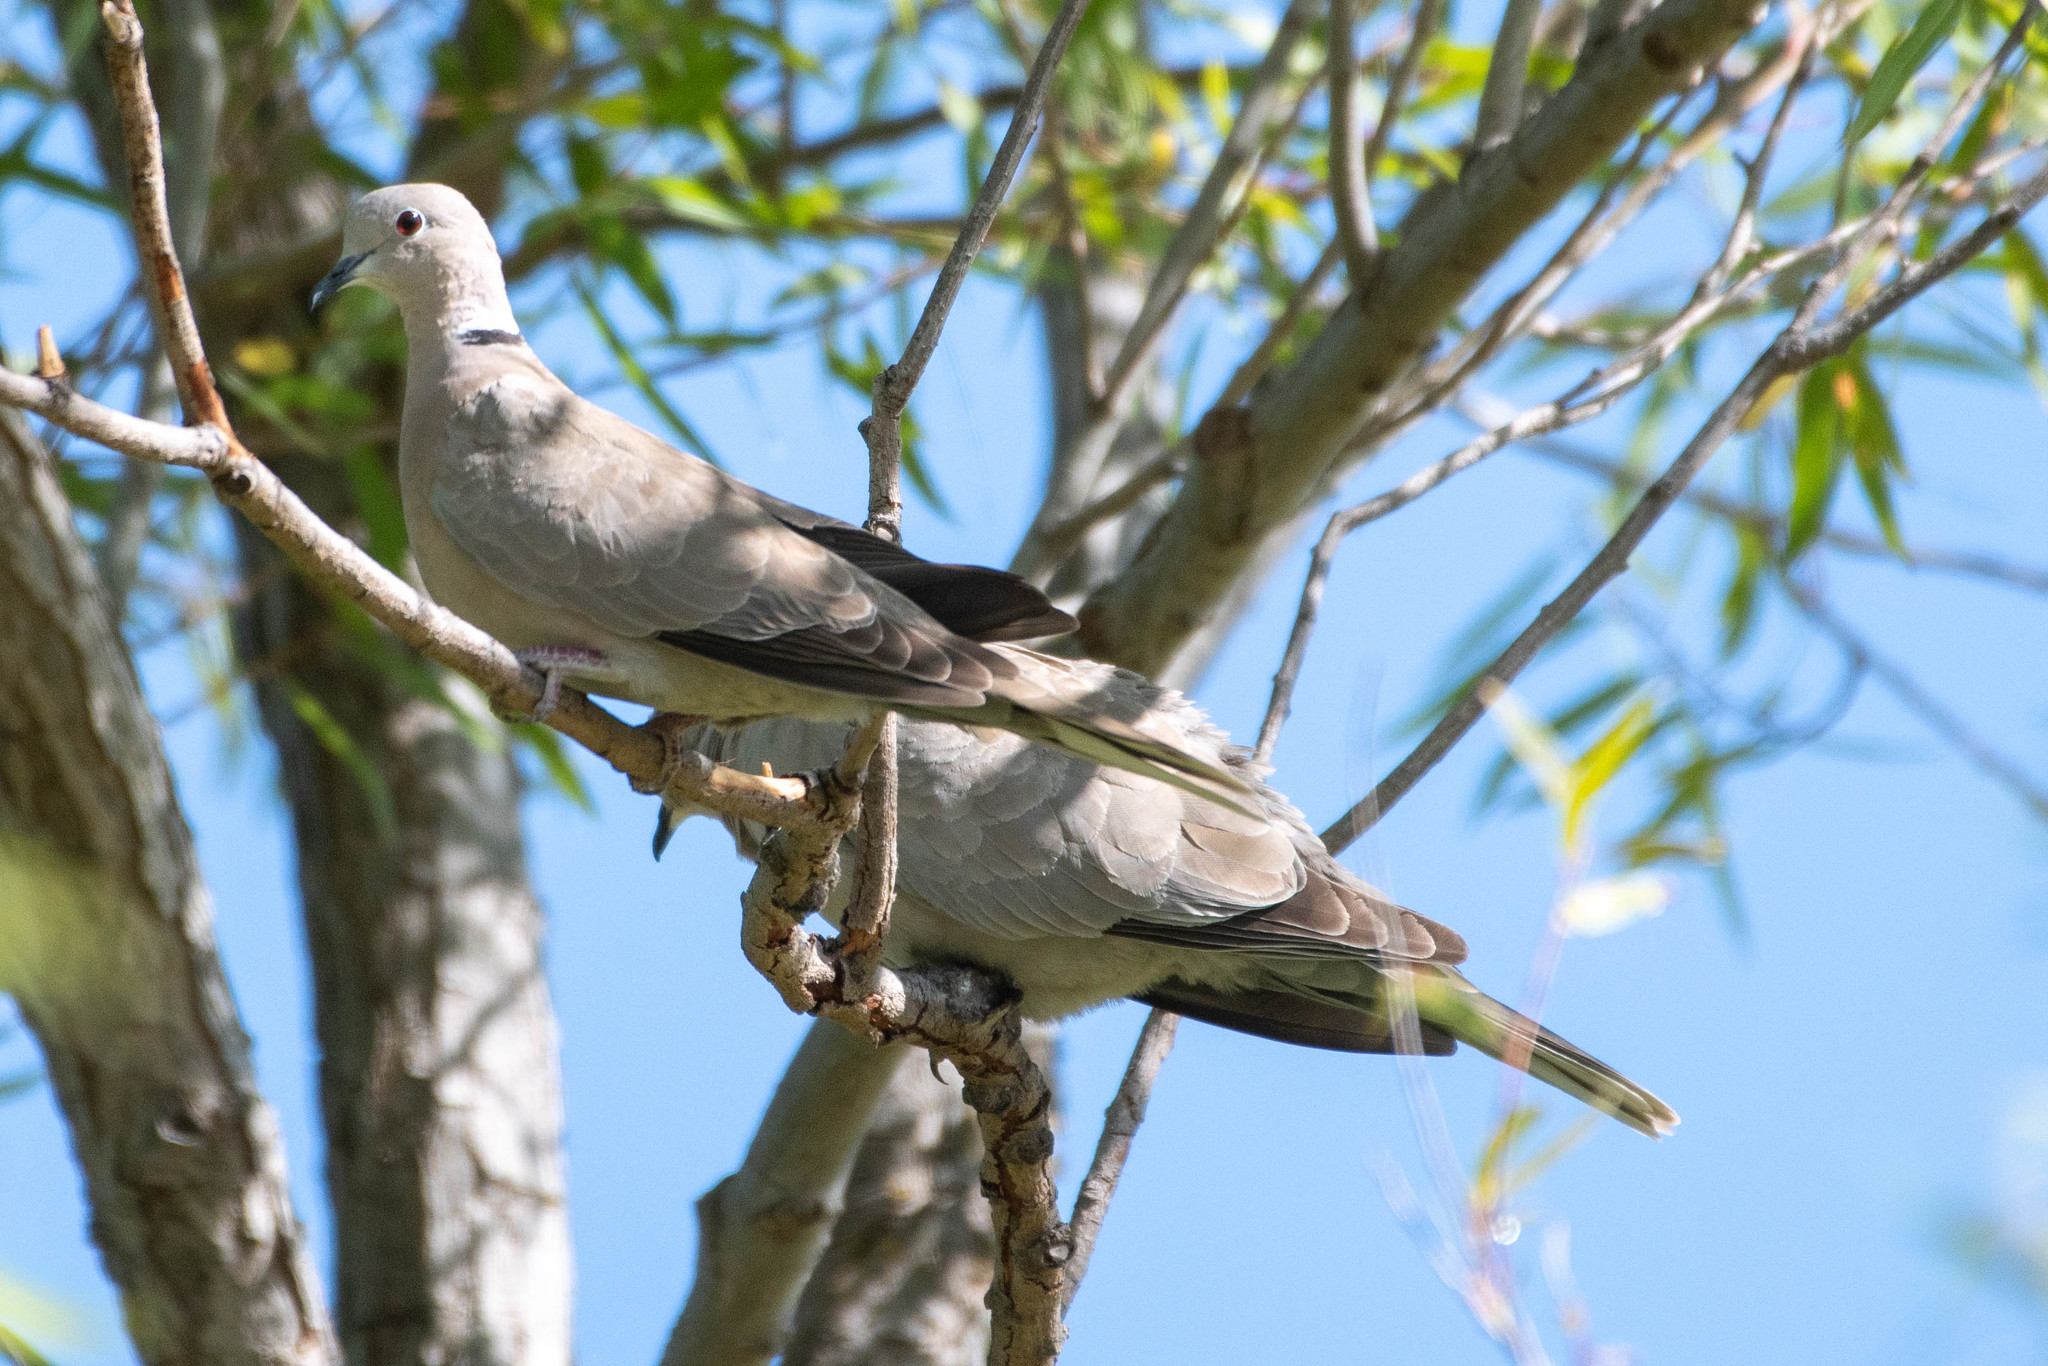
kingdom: Animalia
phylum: Chordata
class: Aves
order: Columbiformes
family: Columbidae
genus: Streptopelia
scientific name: Streptopelia decaocto
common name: Eurasian collared dove
